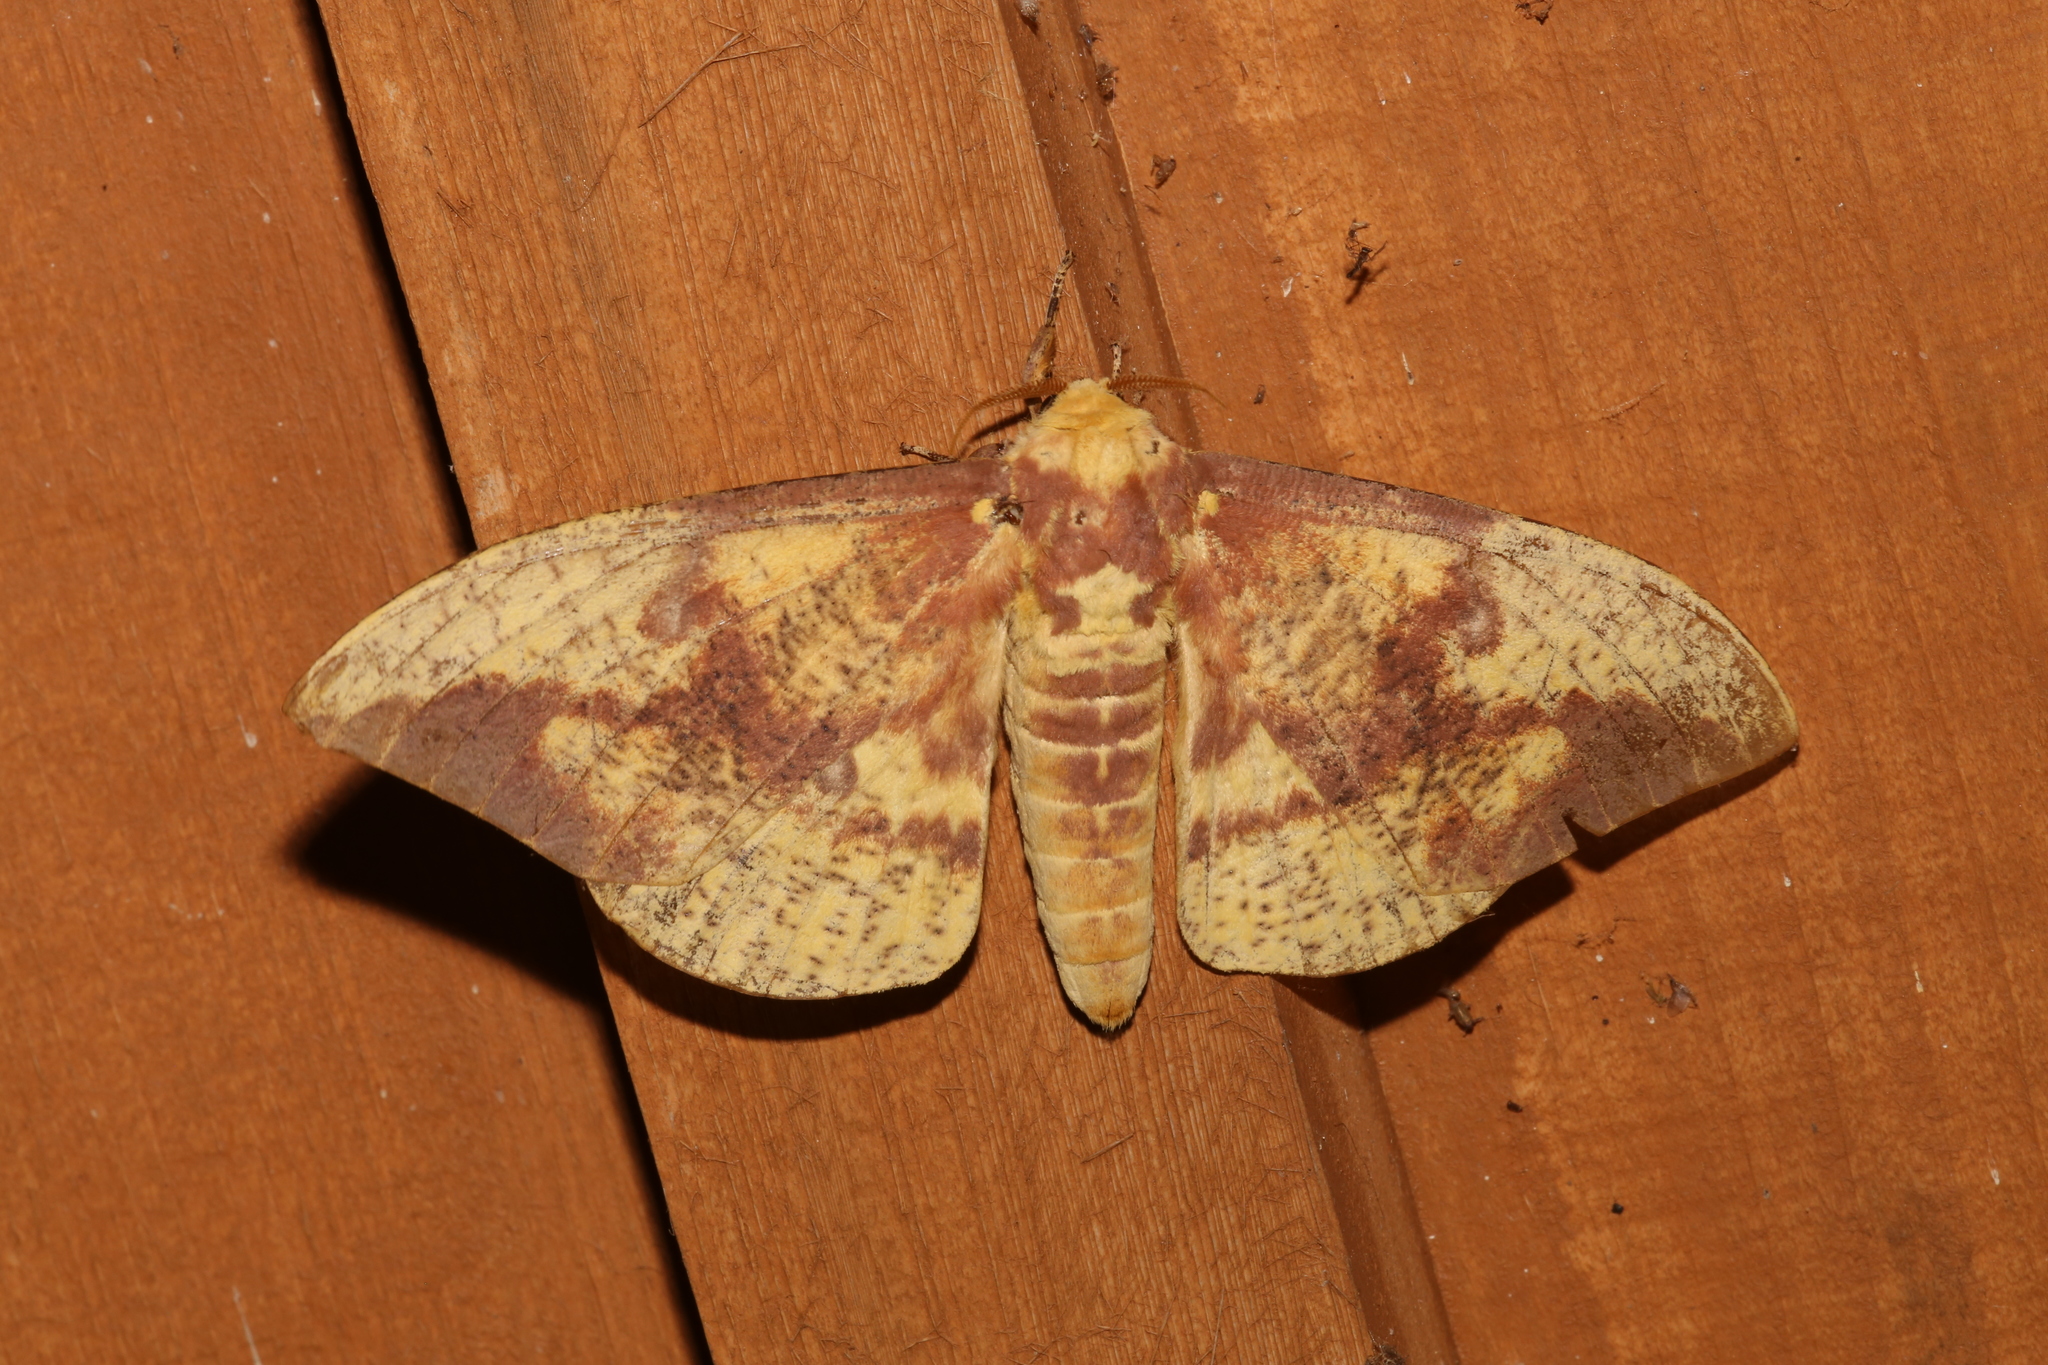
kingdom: Animalia
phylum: Arthropoda
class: Insecta
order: Lepidoptera
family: Saturniidae
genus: Eacles
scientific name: Eacles imperialis
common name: Imperial moth
